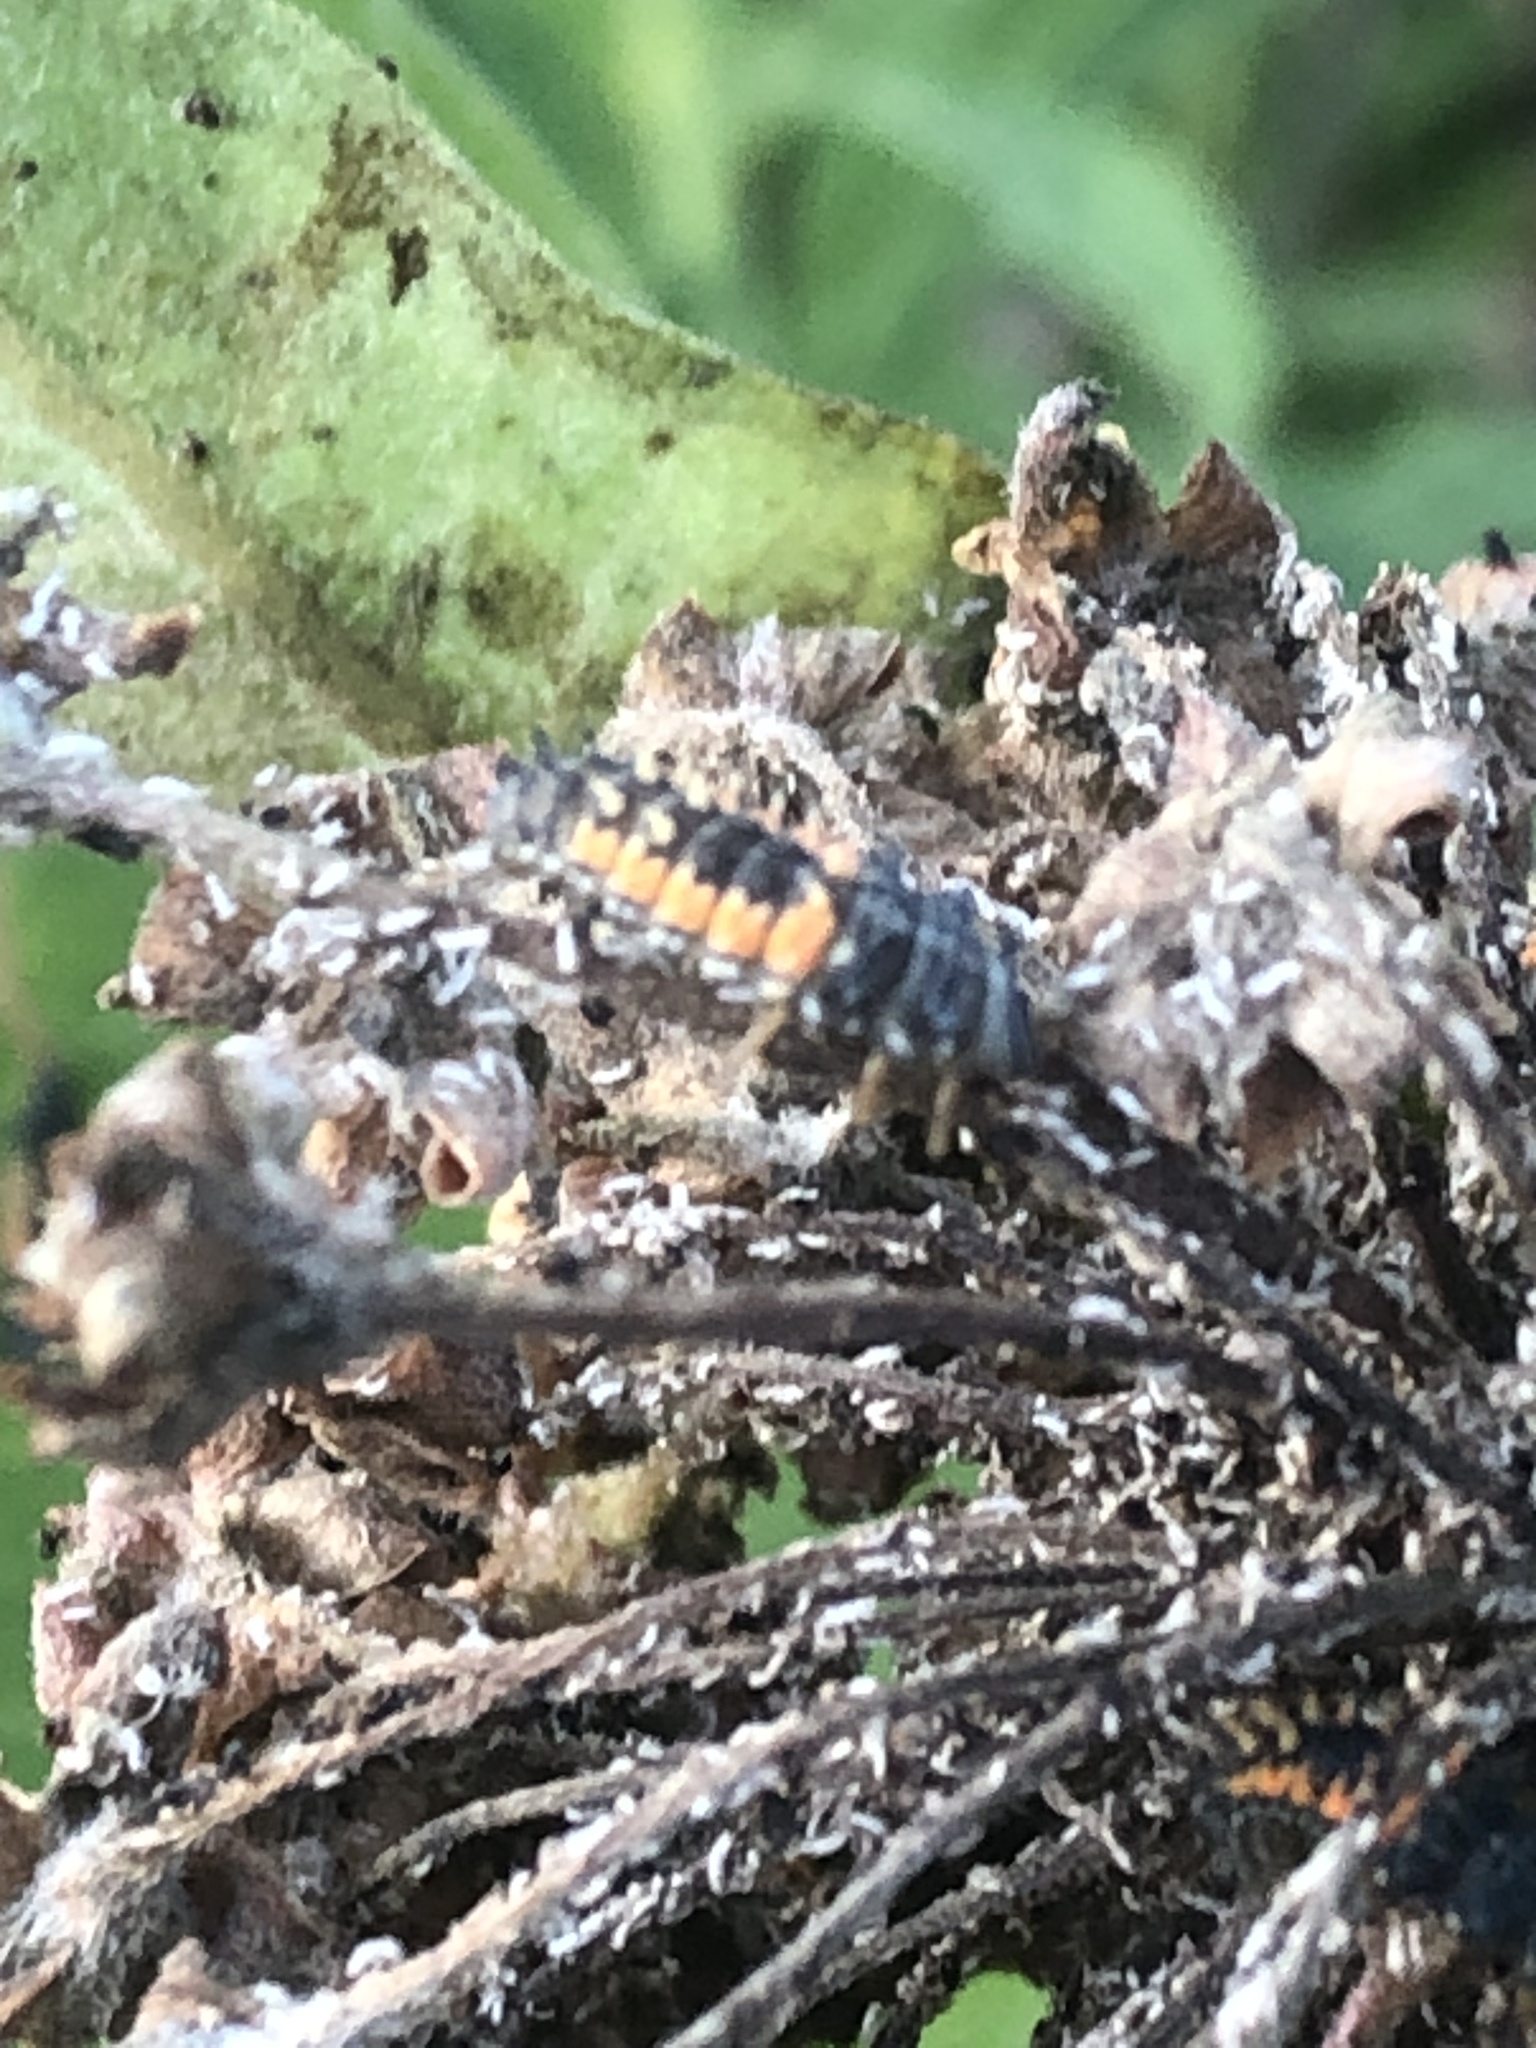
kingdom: Animalia
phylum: Arthropoda
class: Insecta
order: Coleoptera
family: Coccinellidae
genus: Harmonia
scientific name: Harmonia axyridis
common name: Harlequin ladybird
